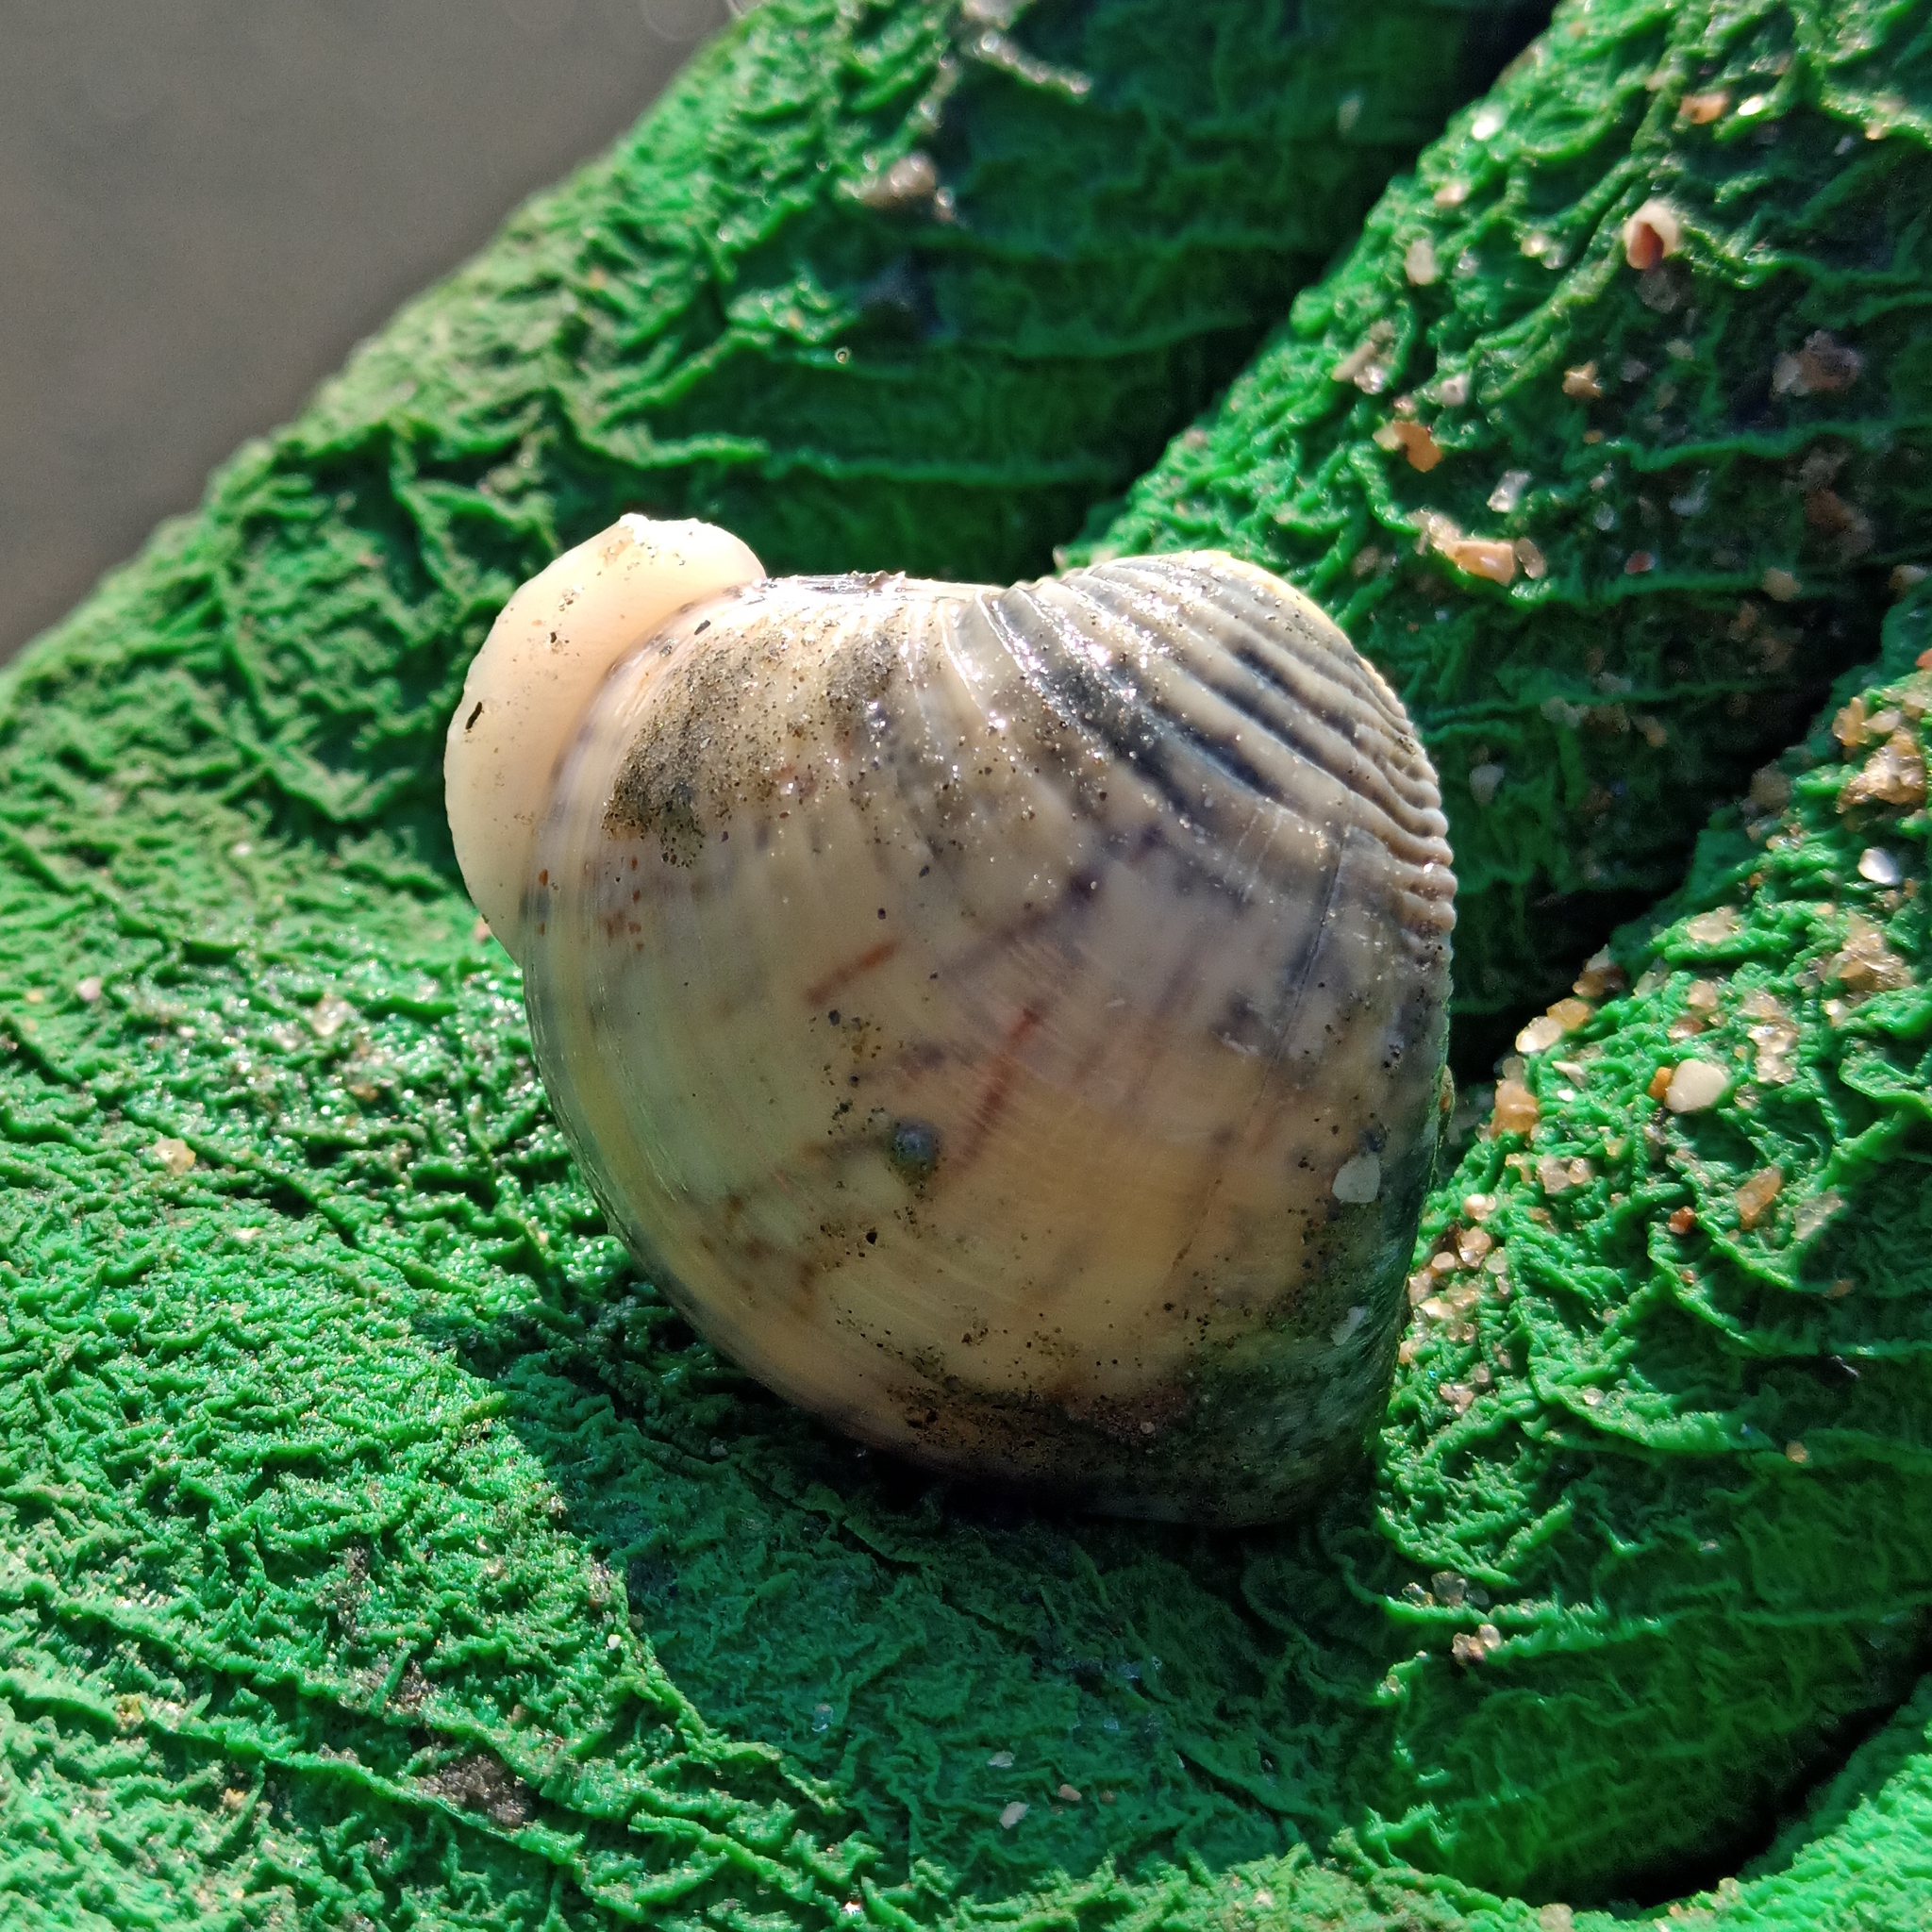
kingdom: Animalia
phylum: Mollusca
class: Bivalvia
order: Venerida
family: Veneridae
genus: Anomalocardia
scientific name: Anomalocardia flexuosa
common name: Carib pointed venus
